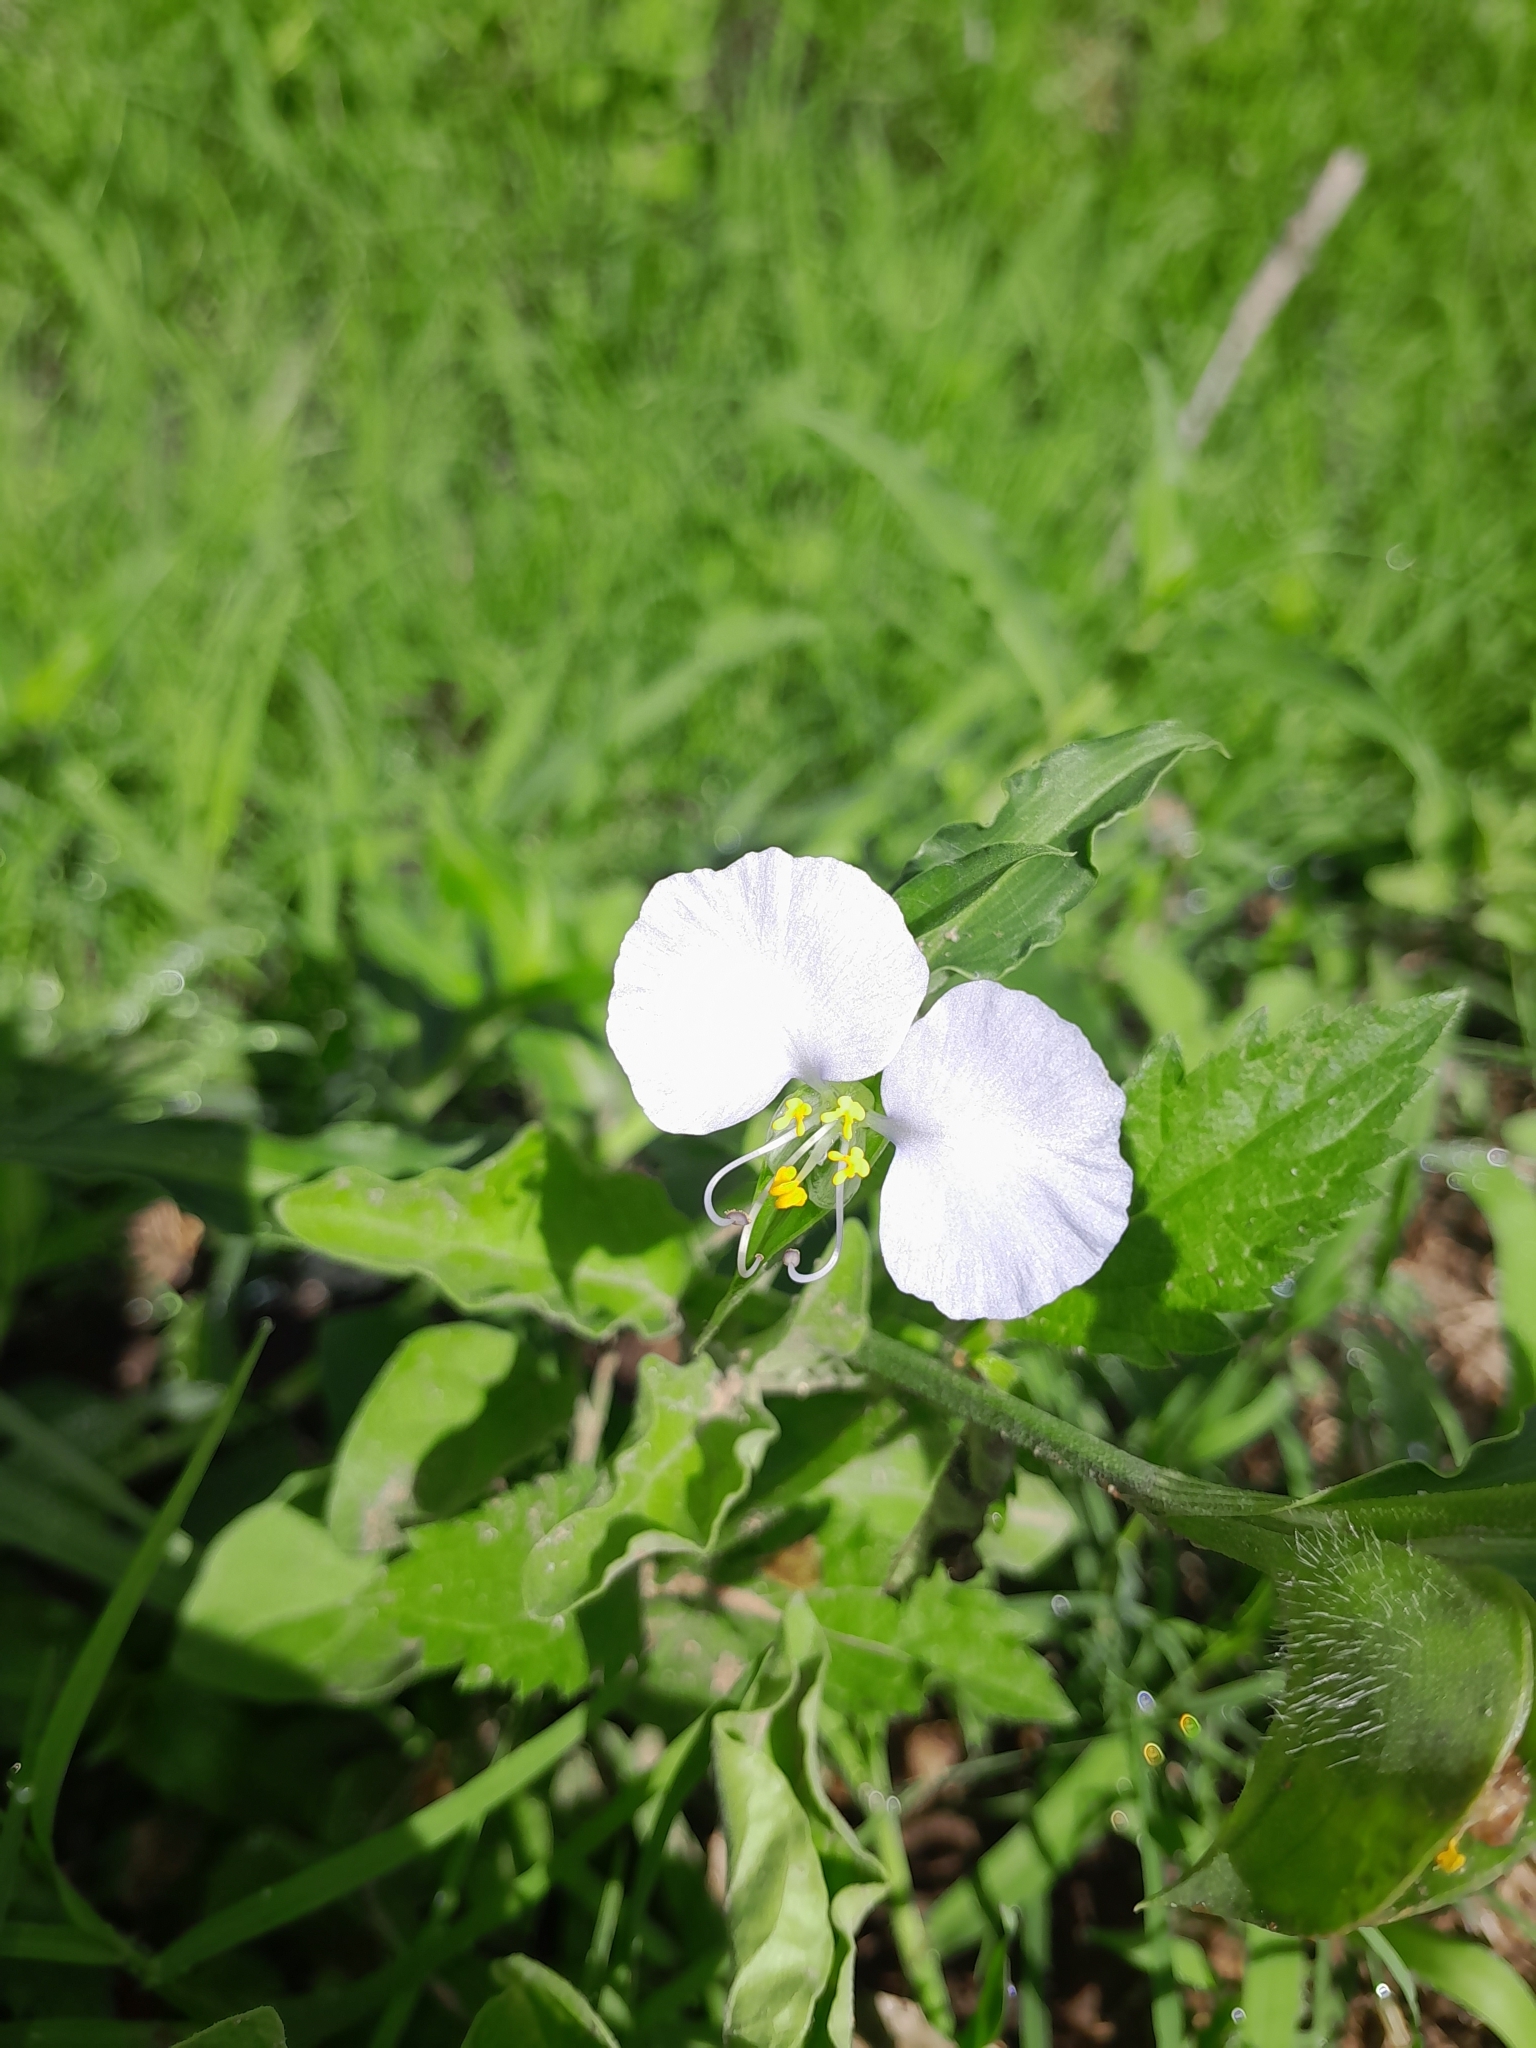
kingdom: Plantae
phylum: Tracheophyta
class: Liliopsida
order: Commelinales
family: Commelinaceae
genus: Commelina
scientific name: Commelina erecta
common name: Blousel blommetjie
